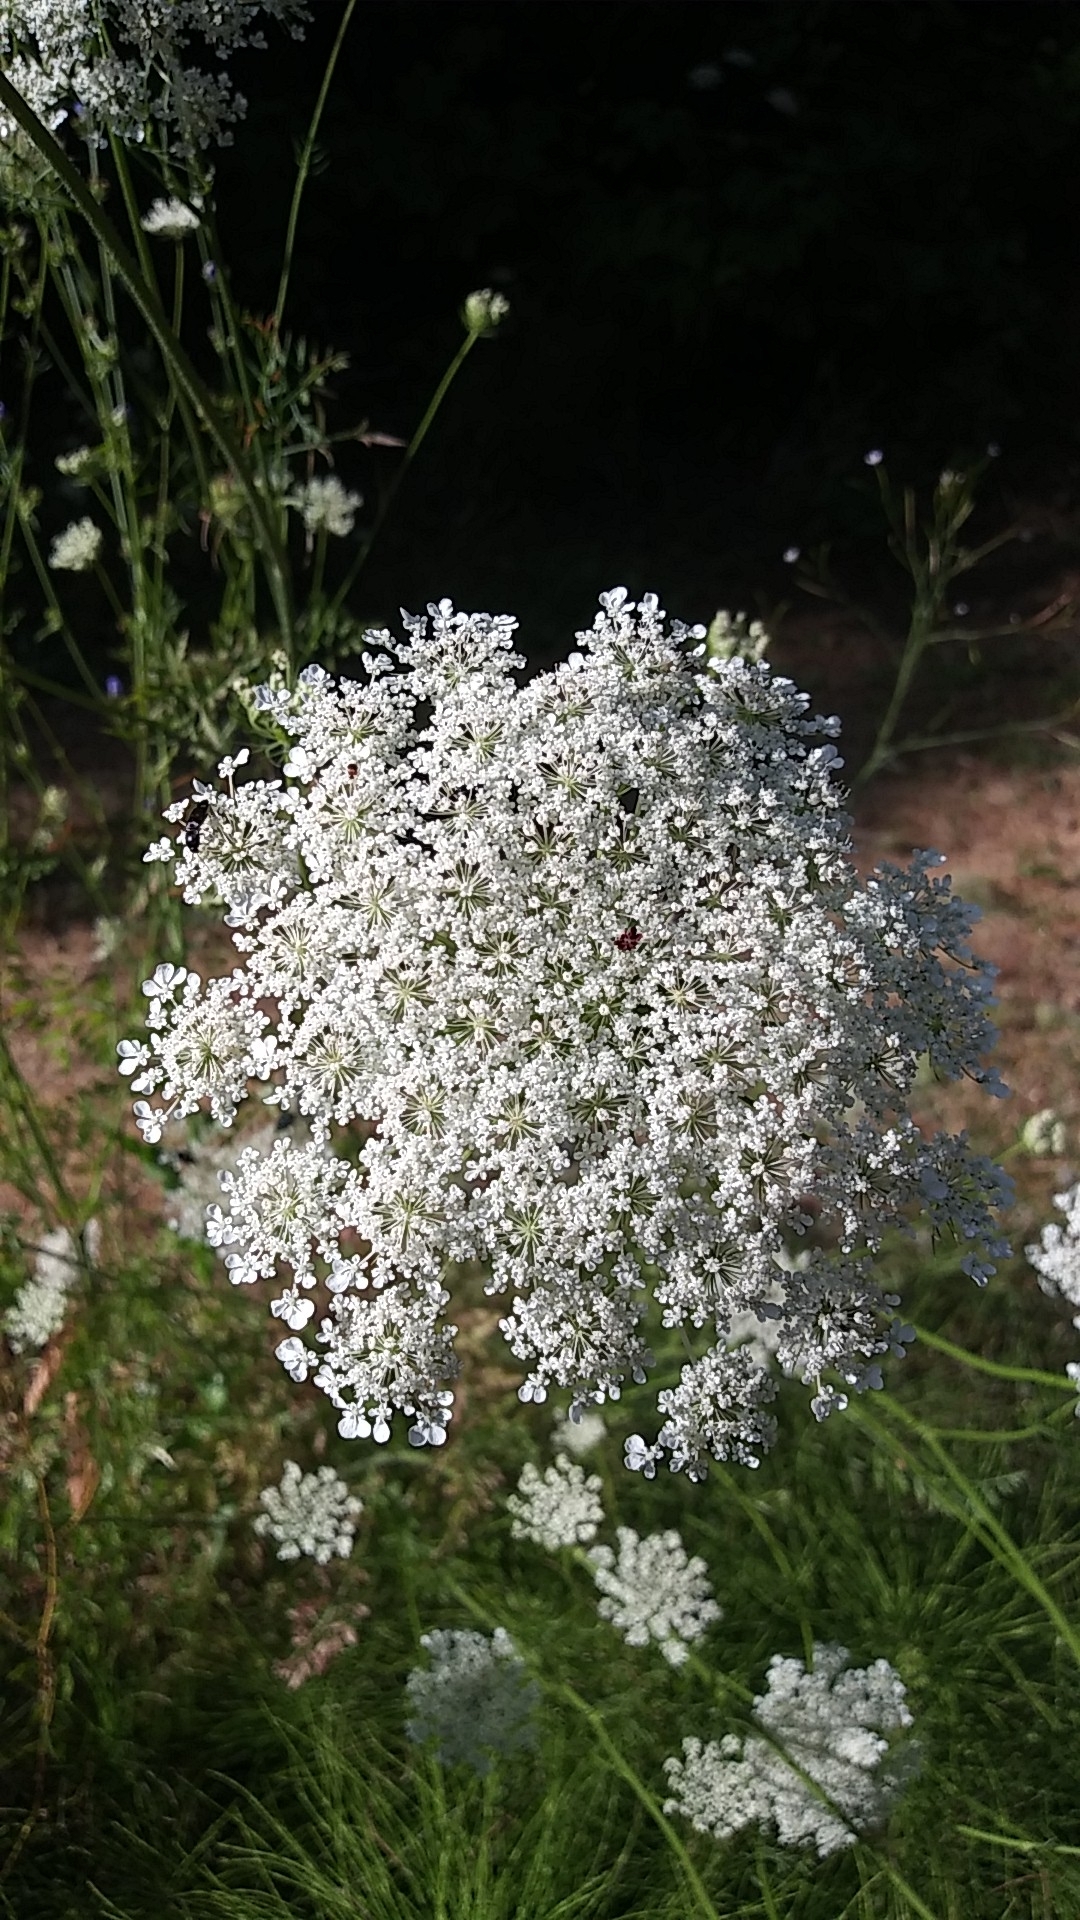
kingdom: Plantae
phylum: Tracheophyta
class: Magnoliopsida
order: Apiales
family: Apiaceae
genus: Daucus
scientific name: Daucus carota
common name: Wild carrot
